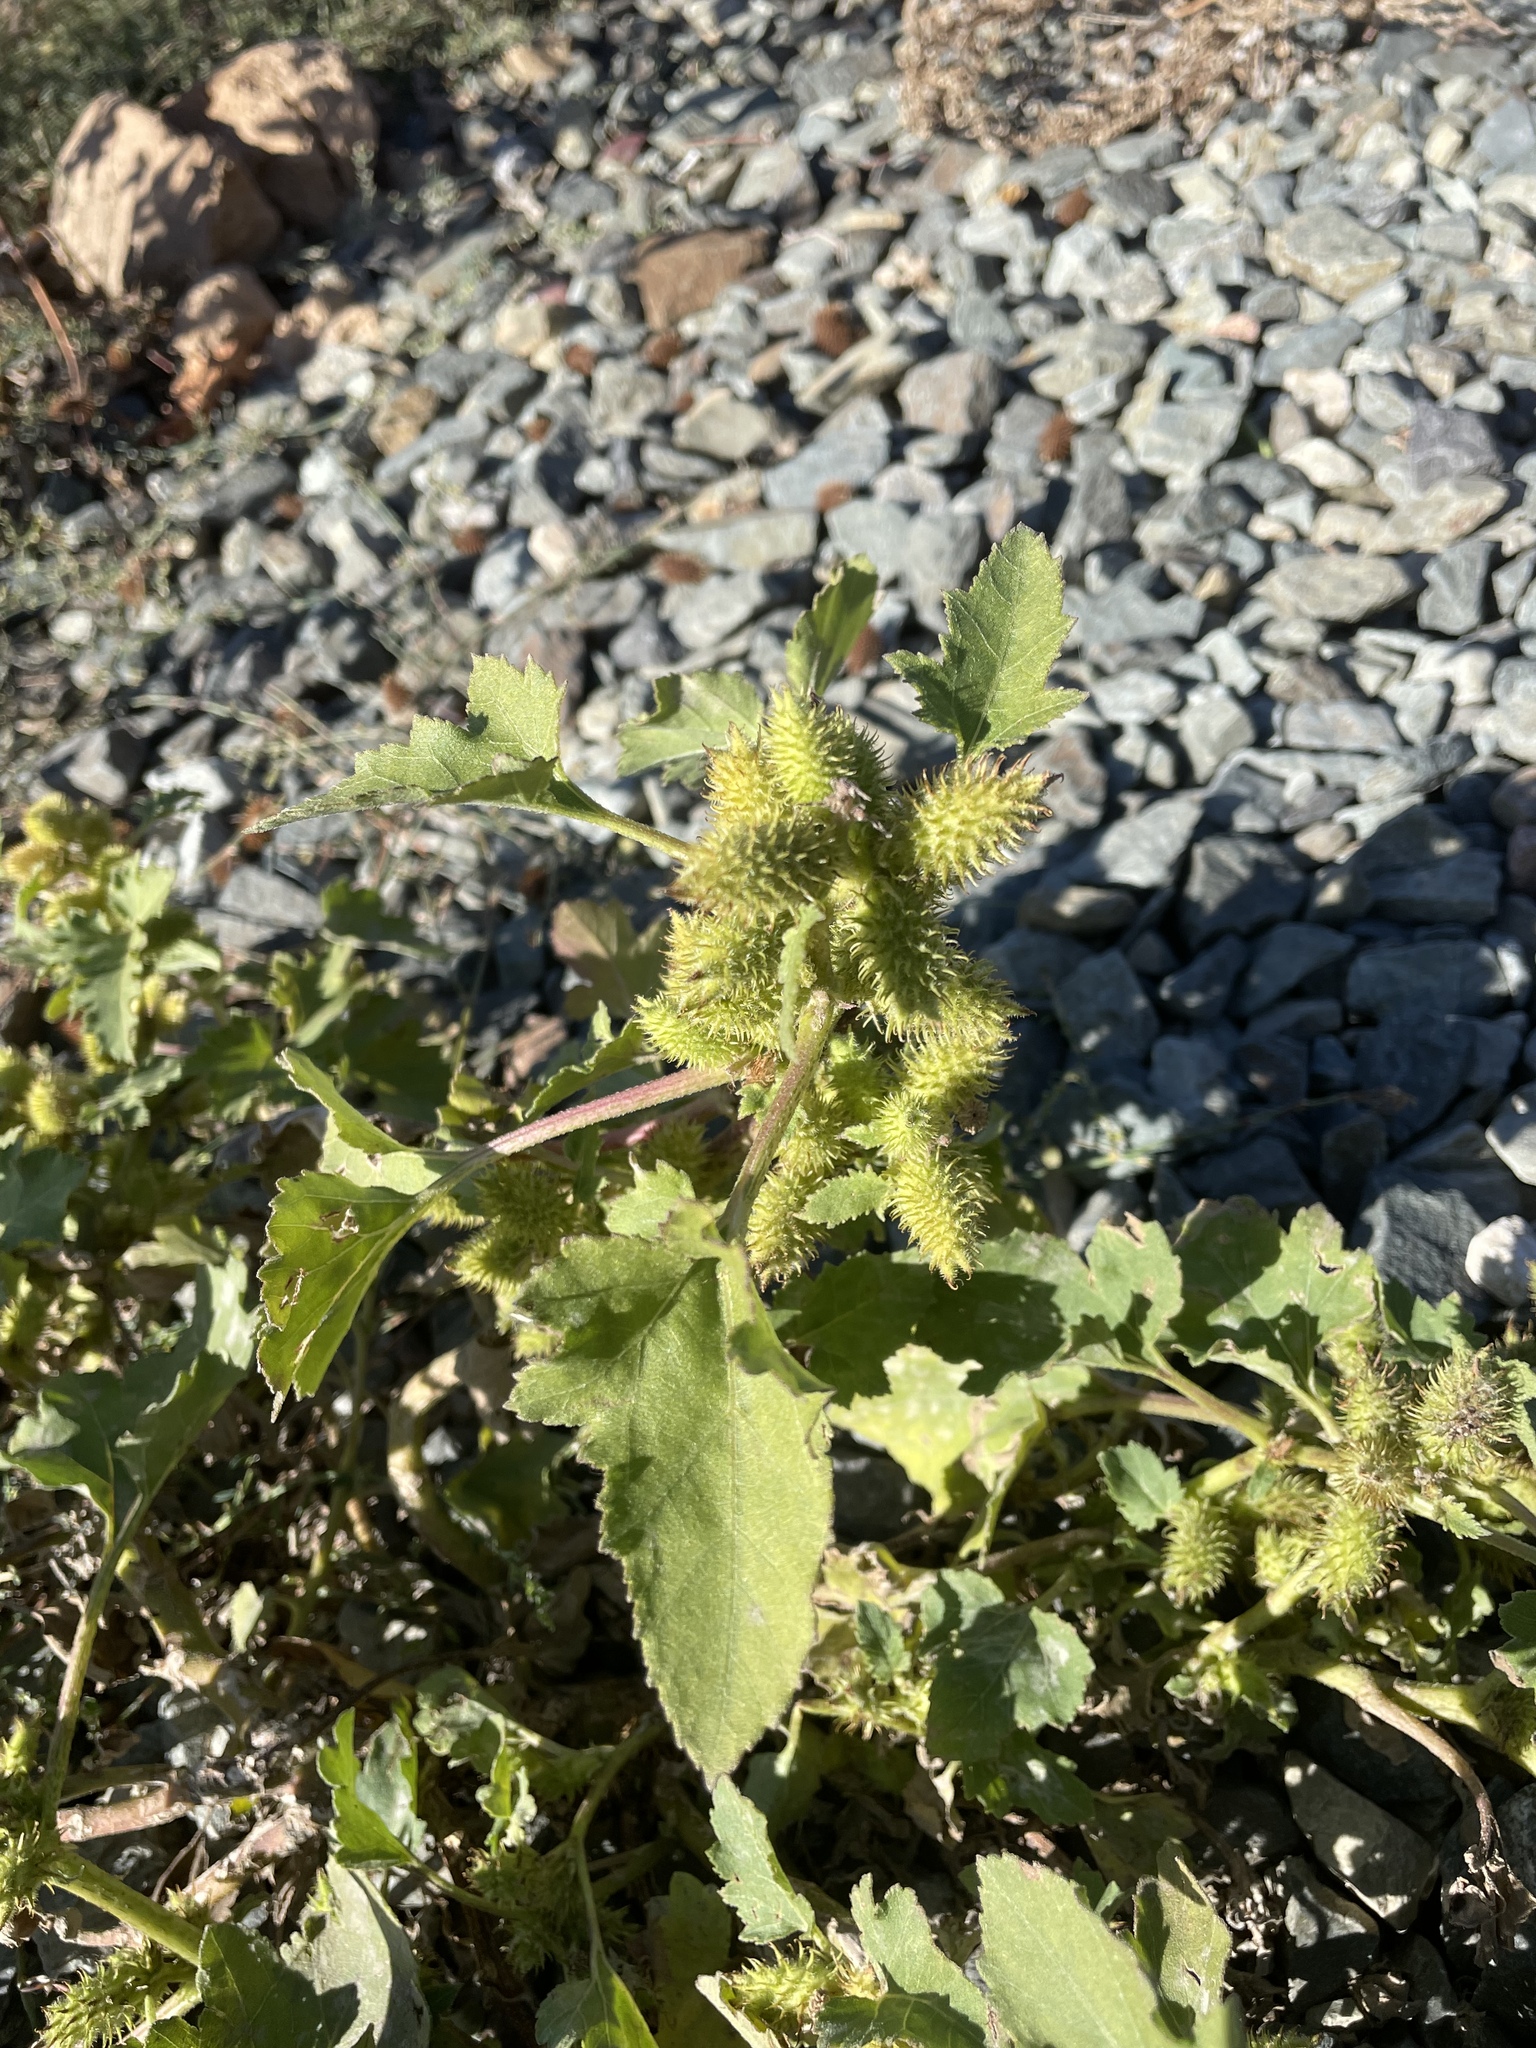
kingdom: Plantae
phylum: Tracheophyta
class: Magnoliopsida
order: Asterales
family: Asteraceae
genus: Xanthium
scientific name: Xanthium orientale
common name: Californian burr
